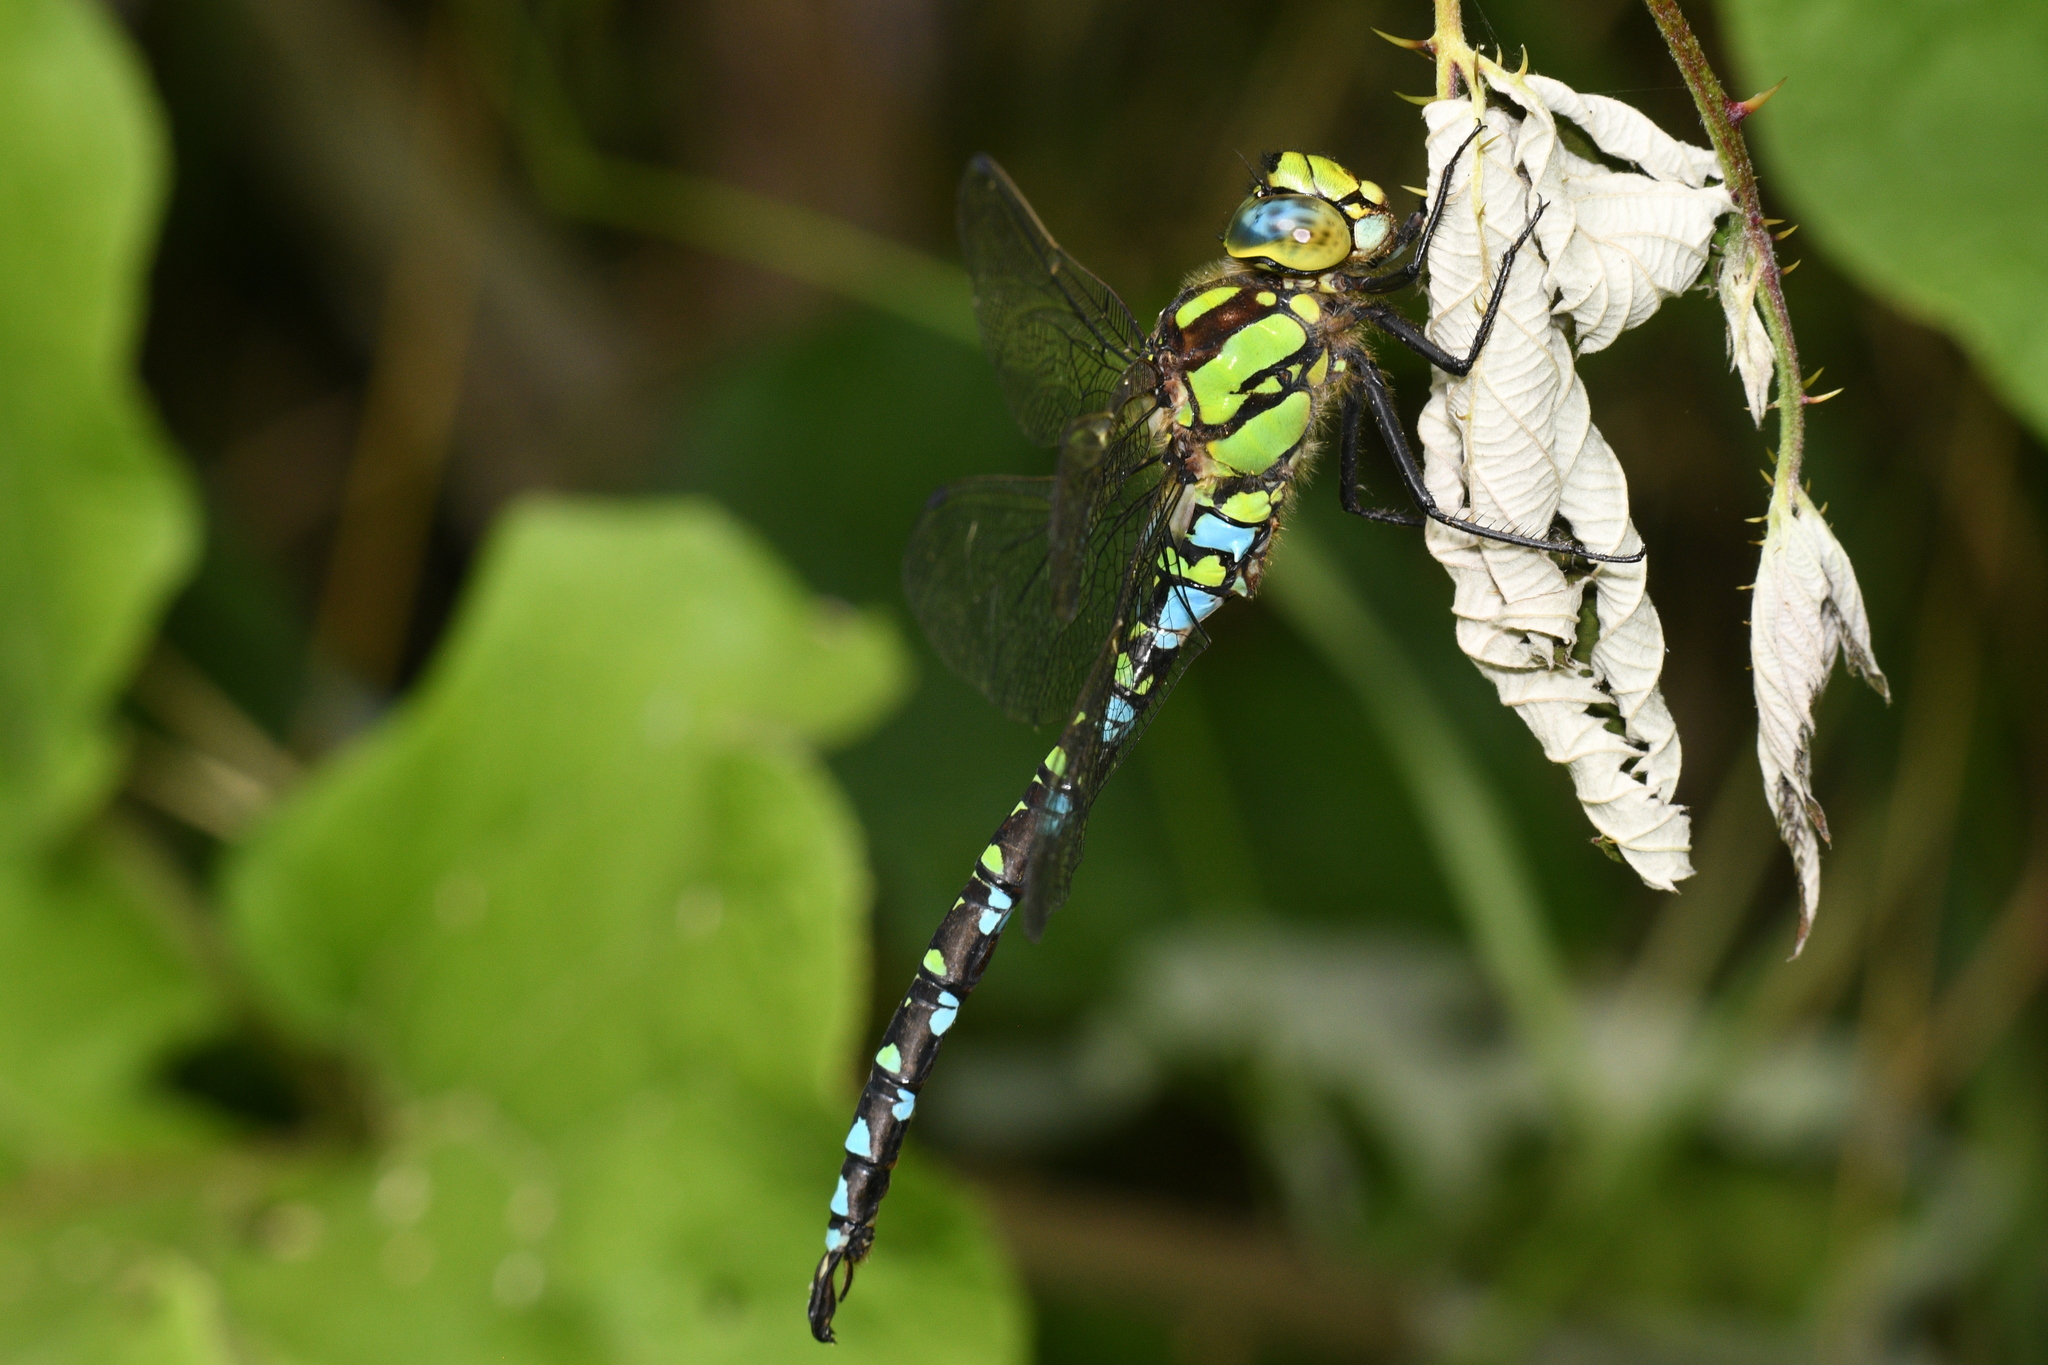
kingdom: Animalia
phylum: Arthropoda
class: Insecta
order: Odonata
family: Aeshnidae
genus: Aeshna
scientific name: Aeshna cyanea
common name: Southern hawker
